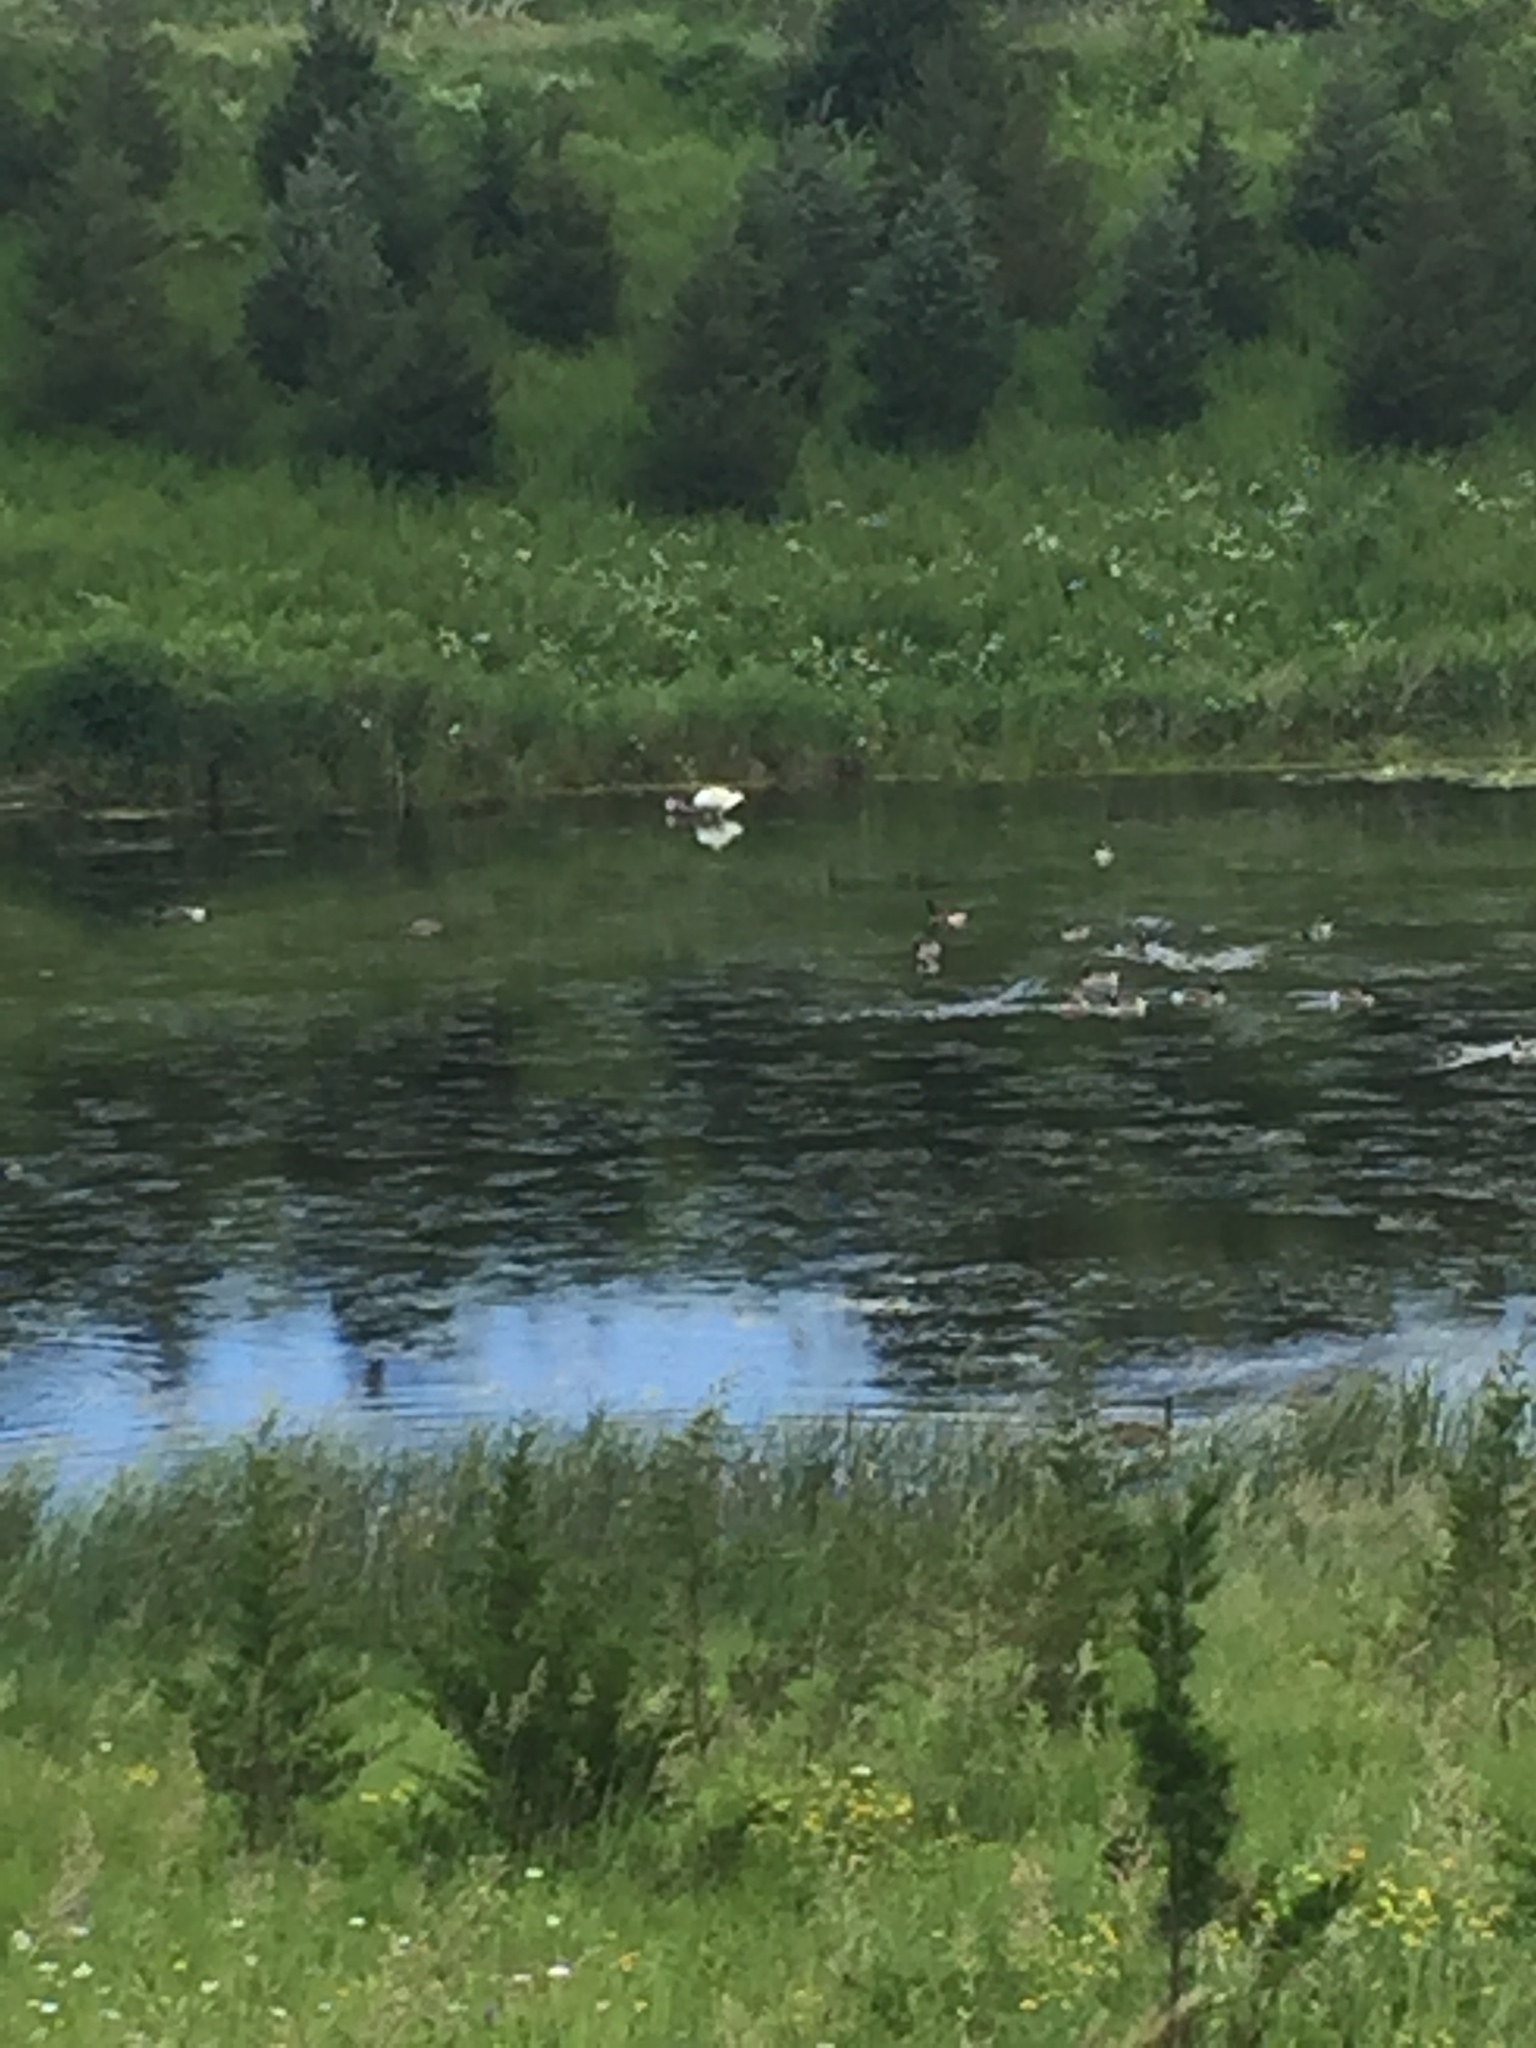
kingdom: Animalia
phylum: Chordata
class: Aves
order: Anseriformes
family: Anatidae
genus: Cygnus
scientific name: Cygnus buccinator
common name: Trumpeter swan
